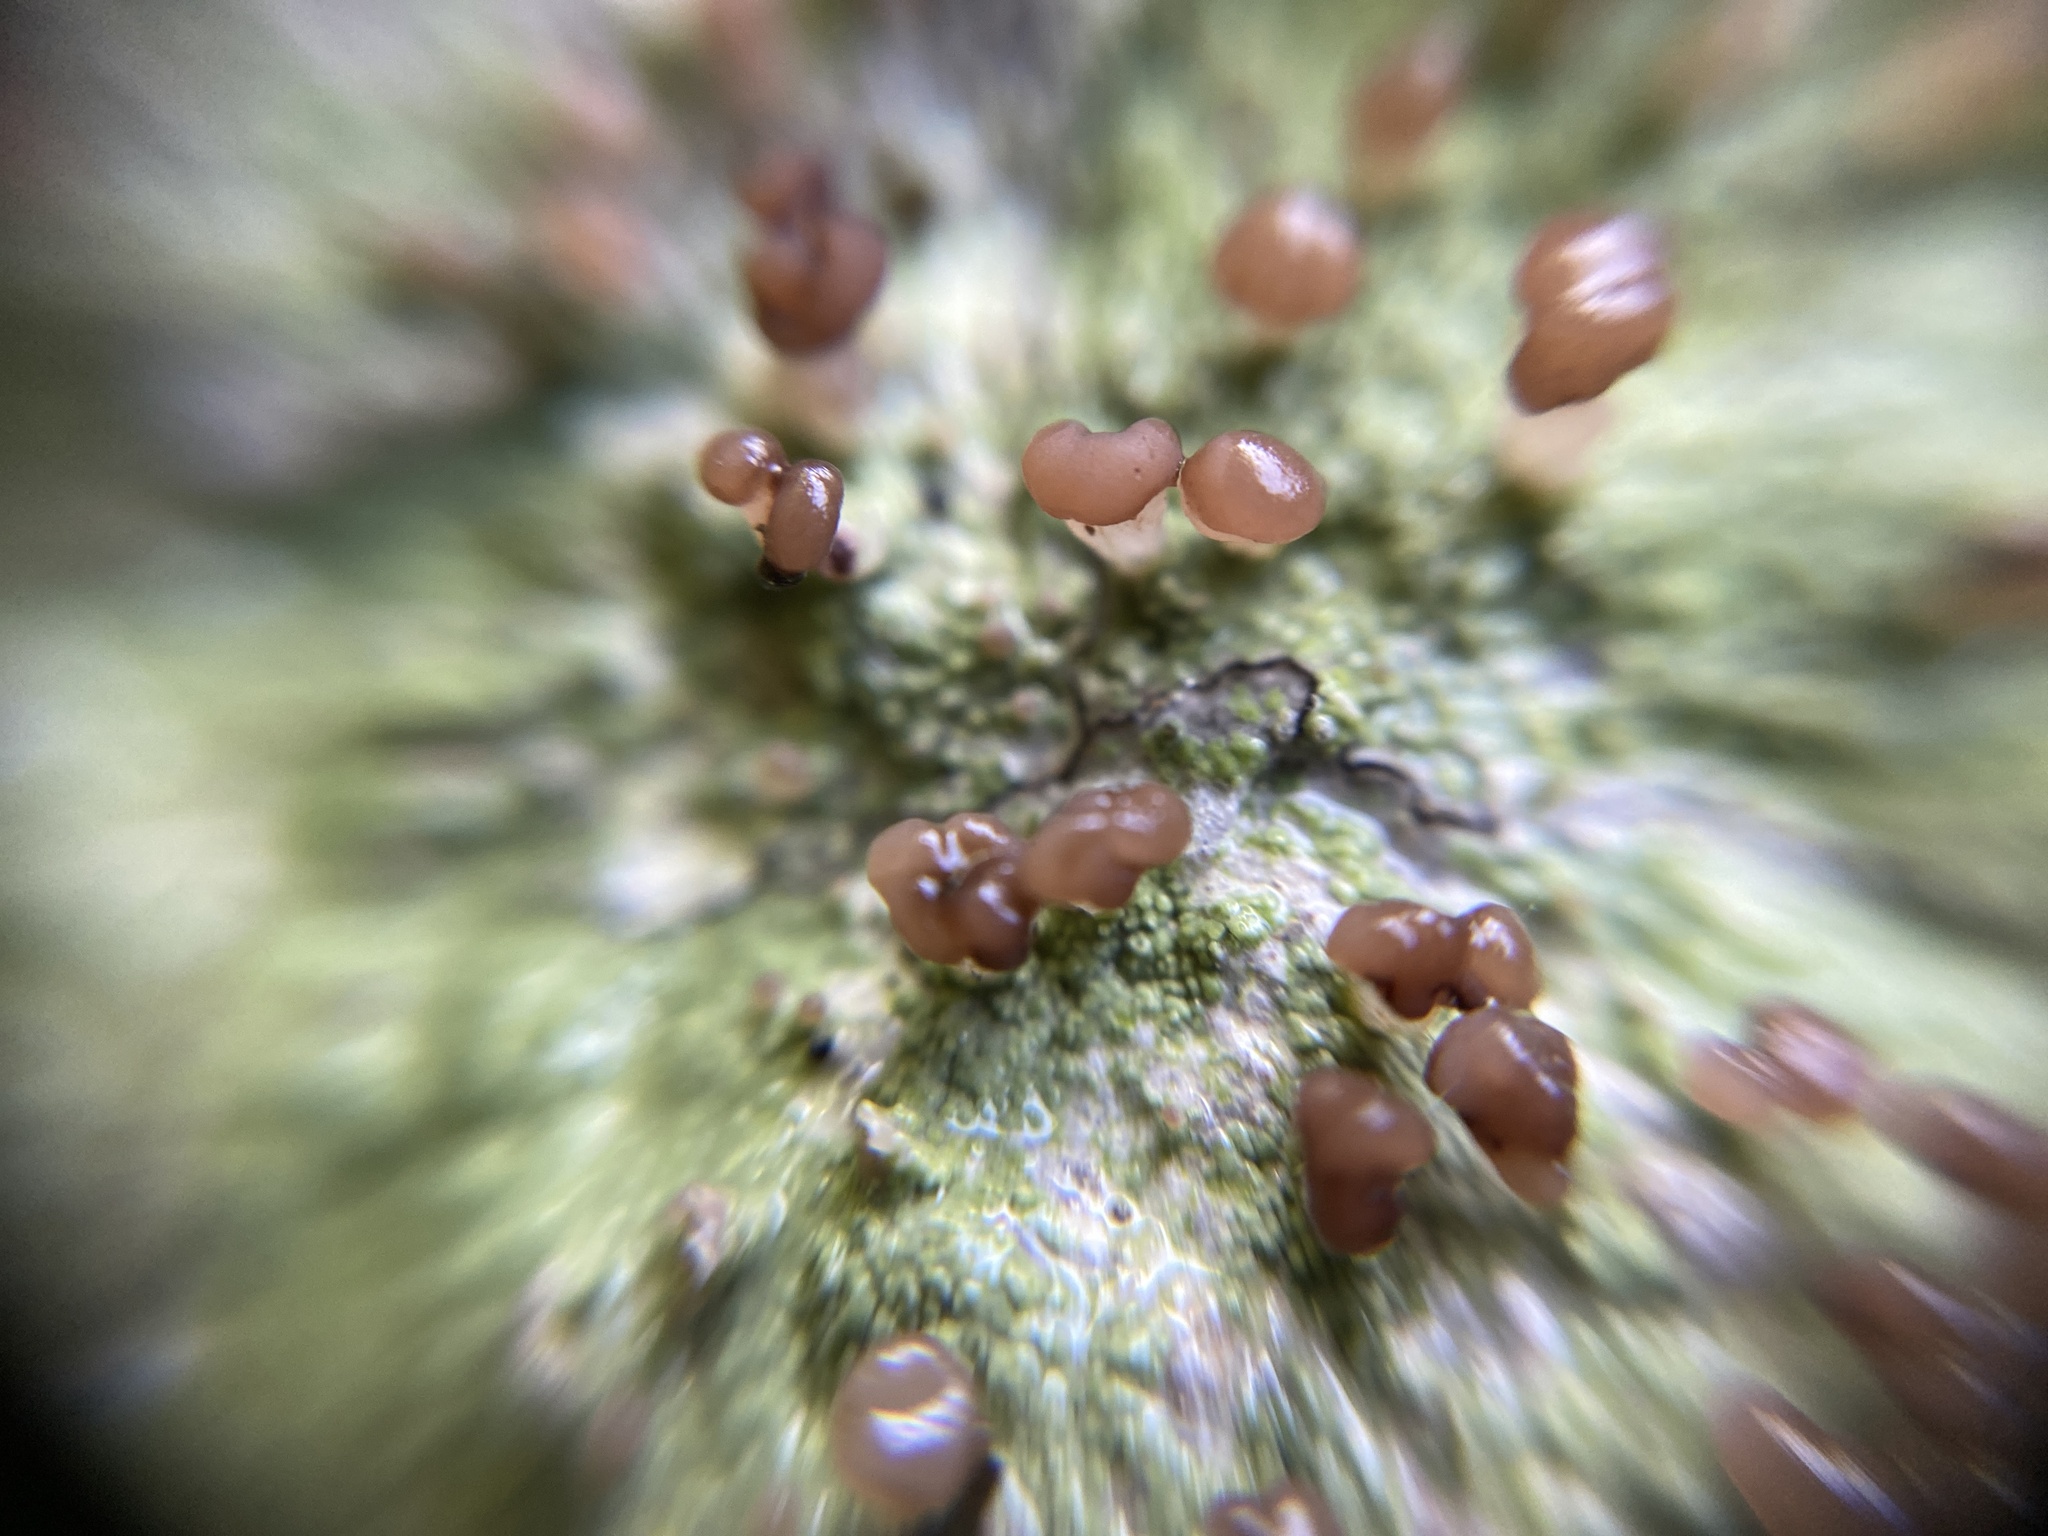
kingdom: Fungi
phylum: Ascomycota
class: Lecanoromycetes
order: Baeomycetales
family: Baeomycetaceae
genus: Baeomyces
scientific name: Baeomyces rufus
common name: Brown beret lichen
